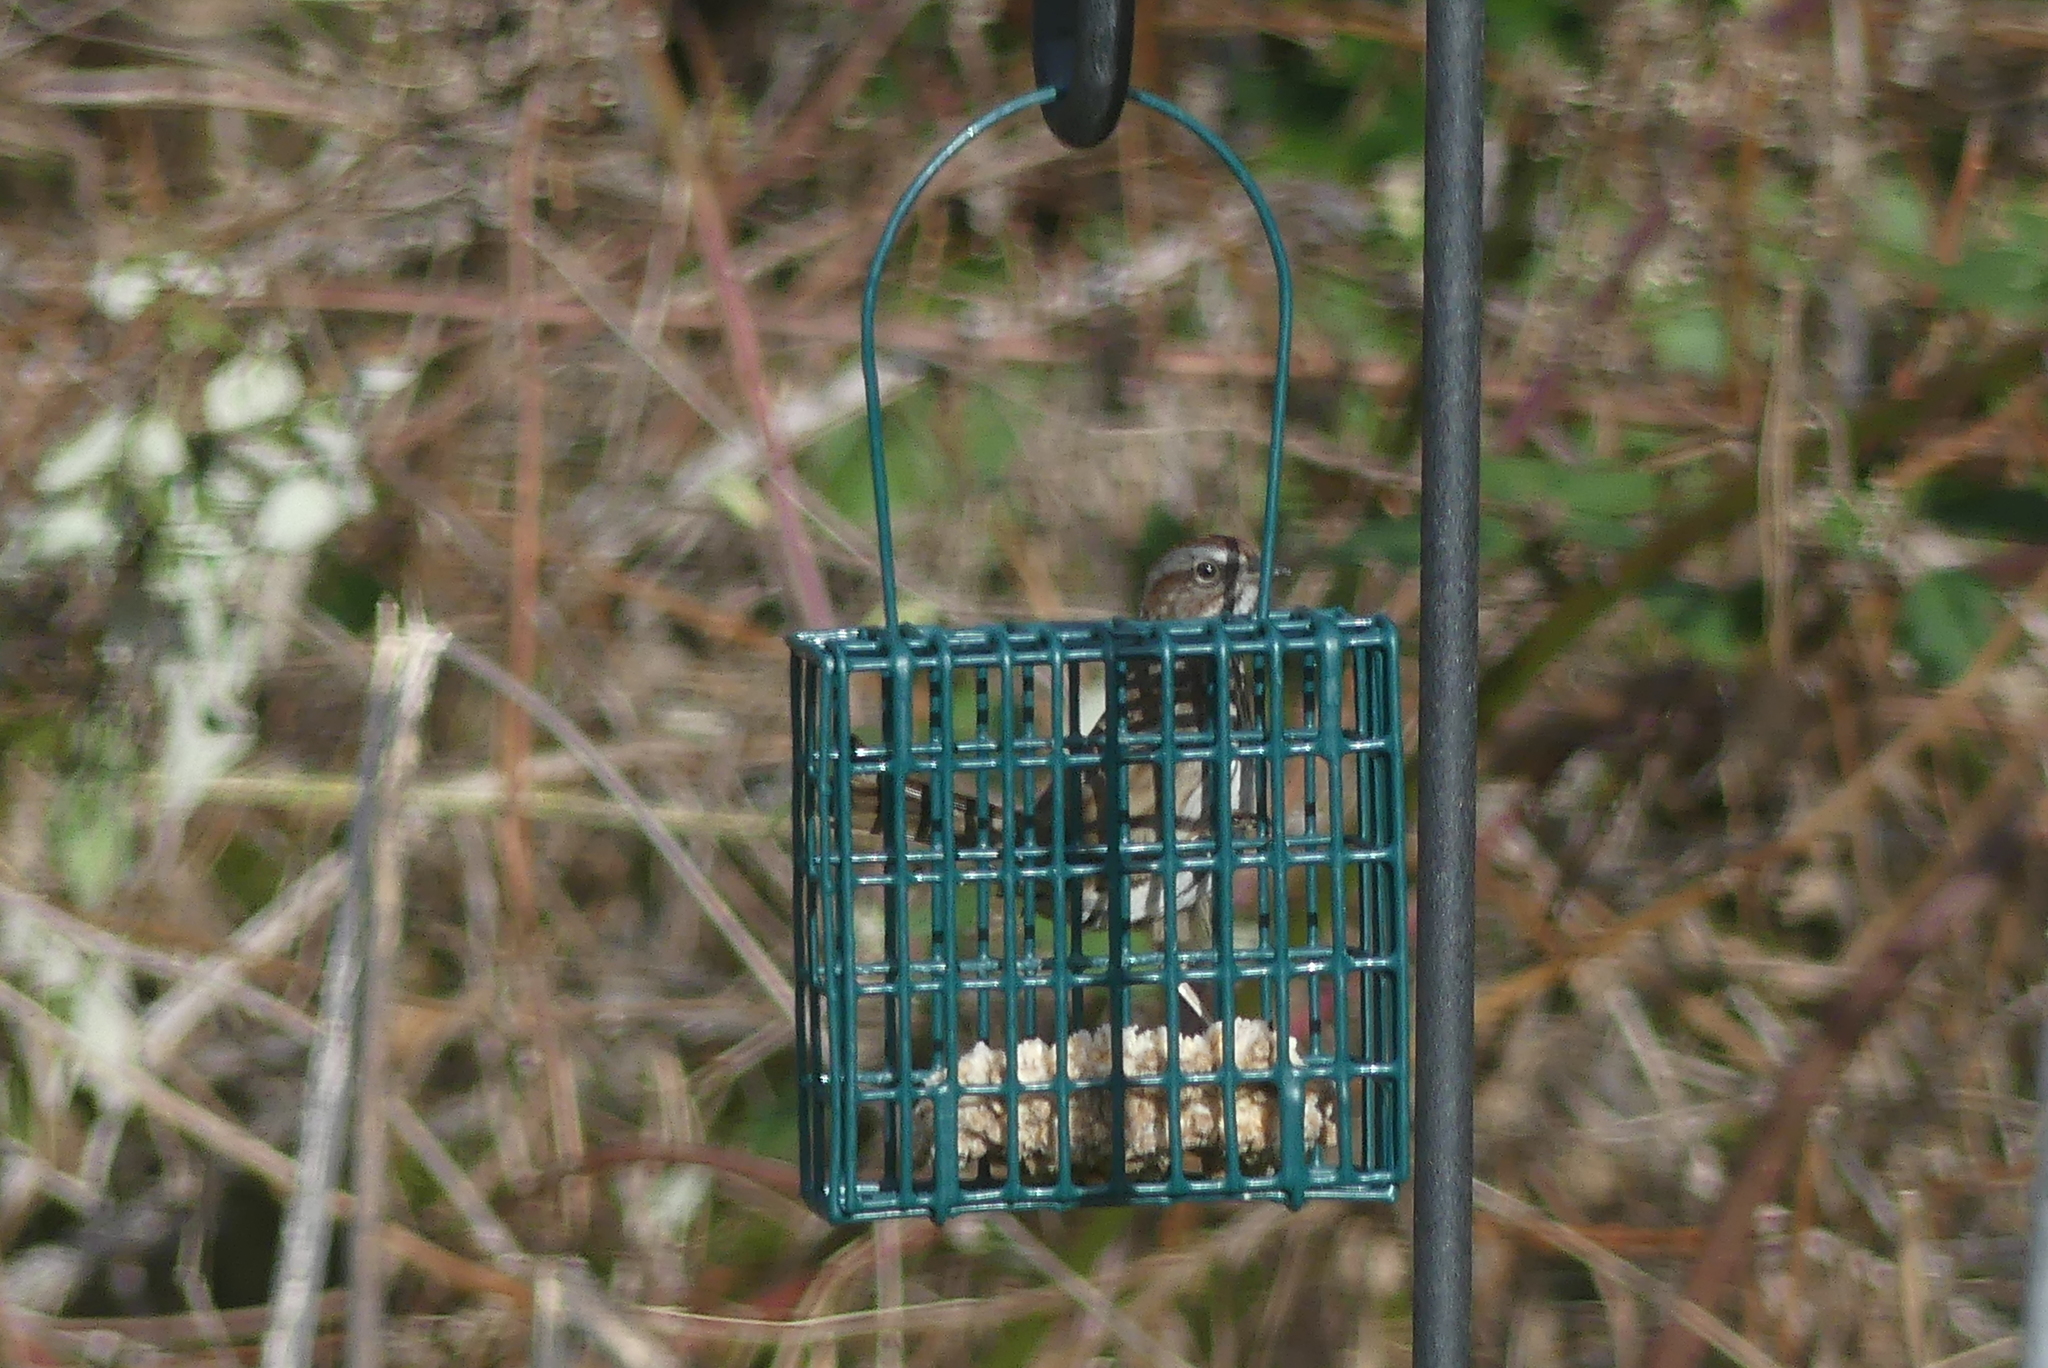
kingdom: Animalia
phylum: Chordata
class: Aves
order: Passeriformes
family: Passerellidae
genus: Melospiza
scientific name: Melospiza melodia
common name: Song sparrow
